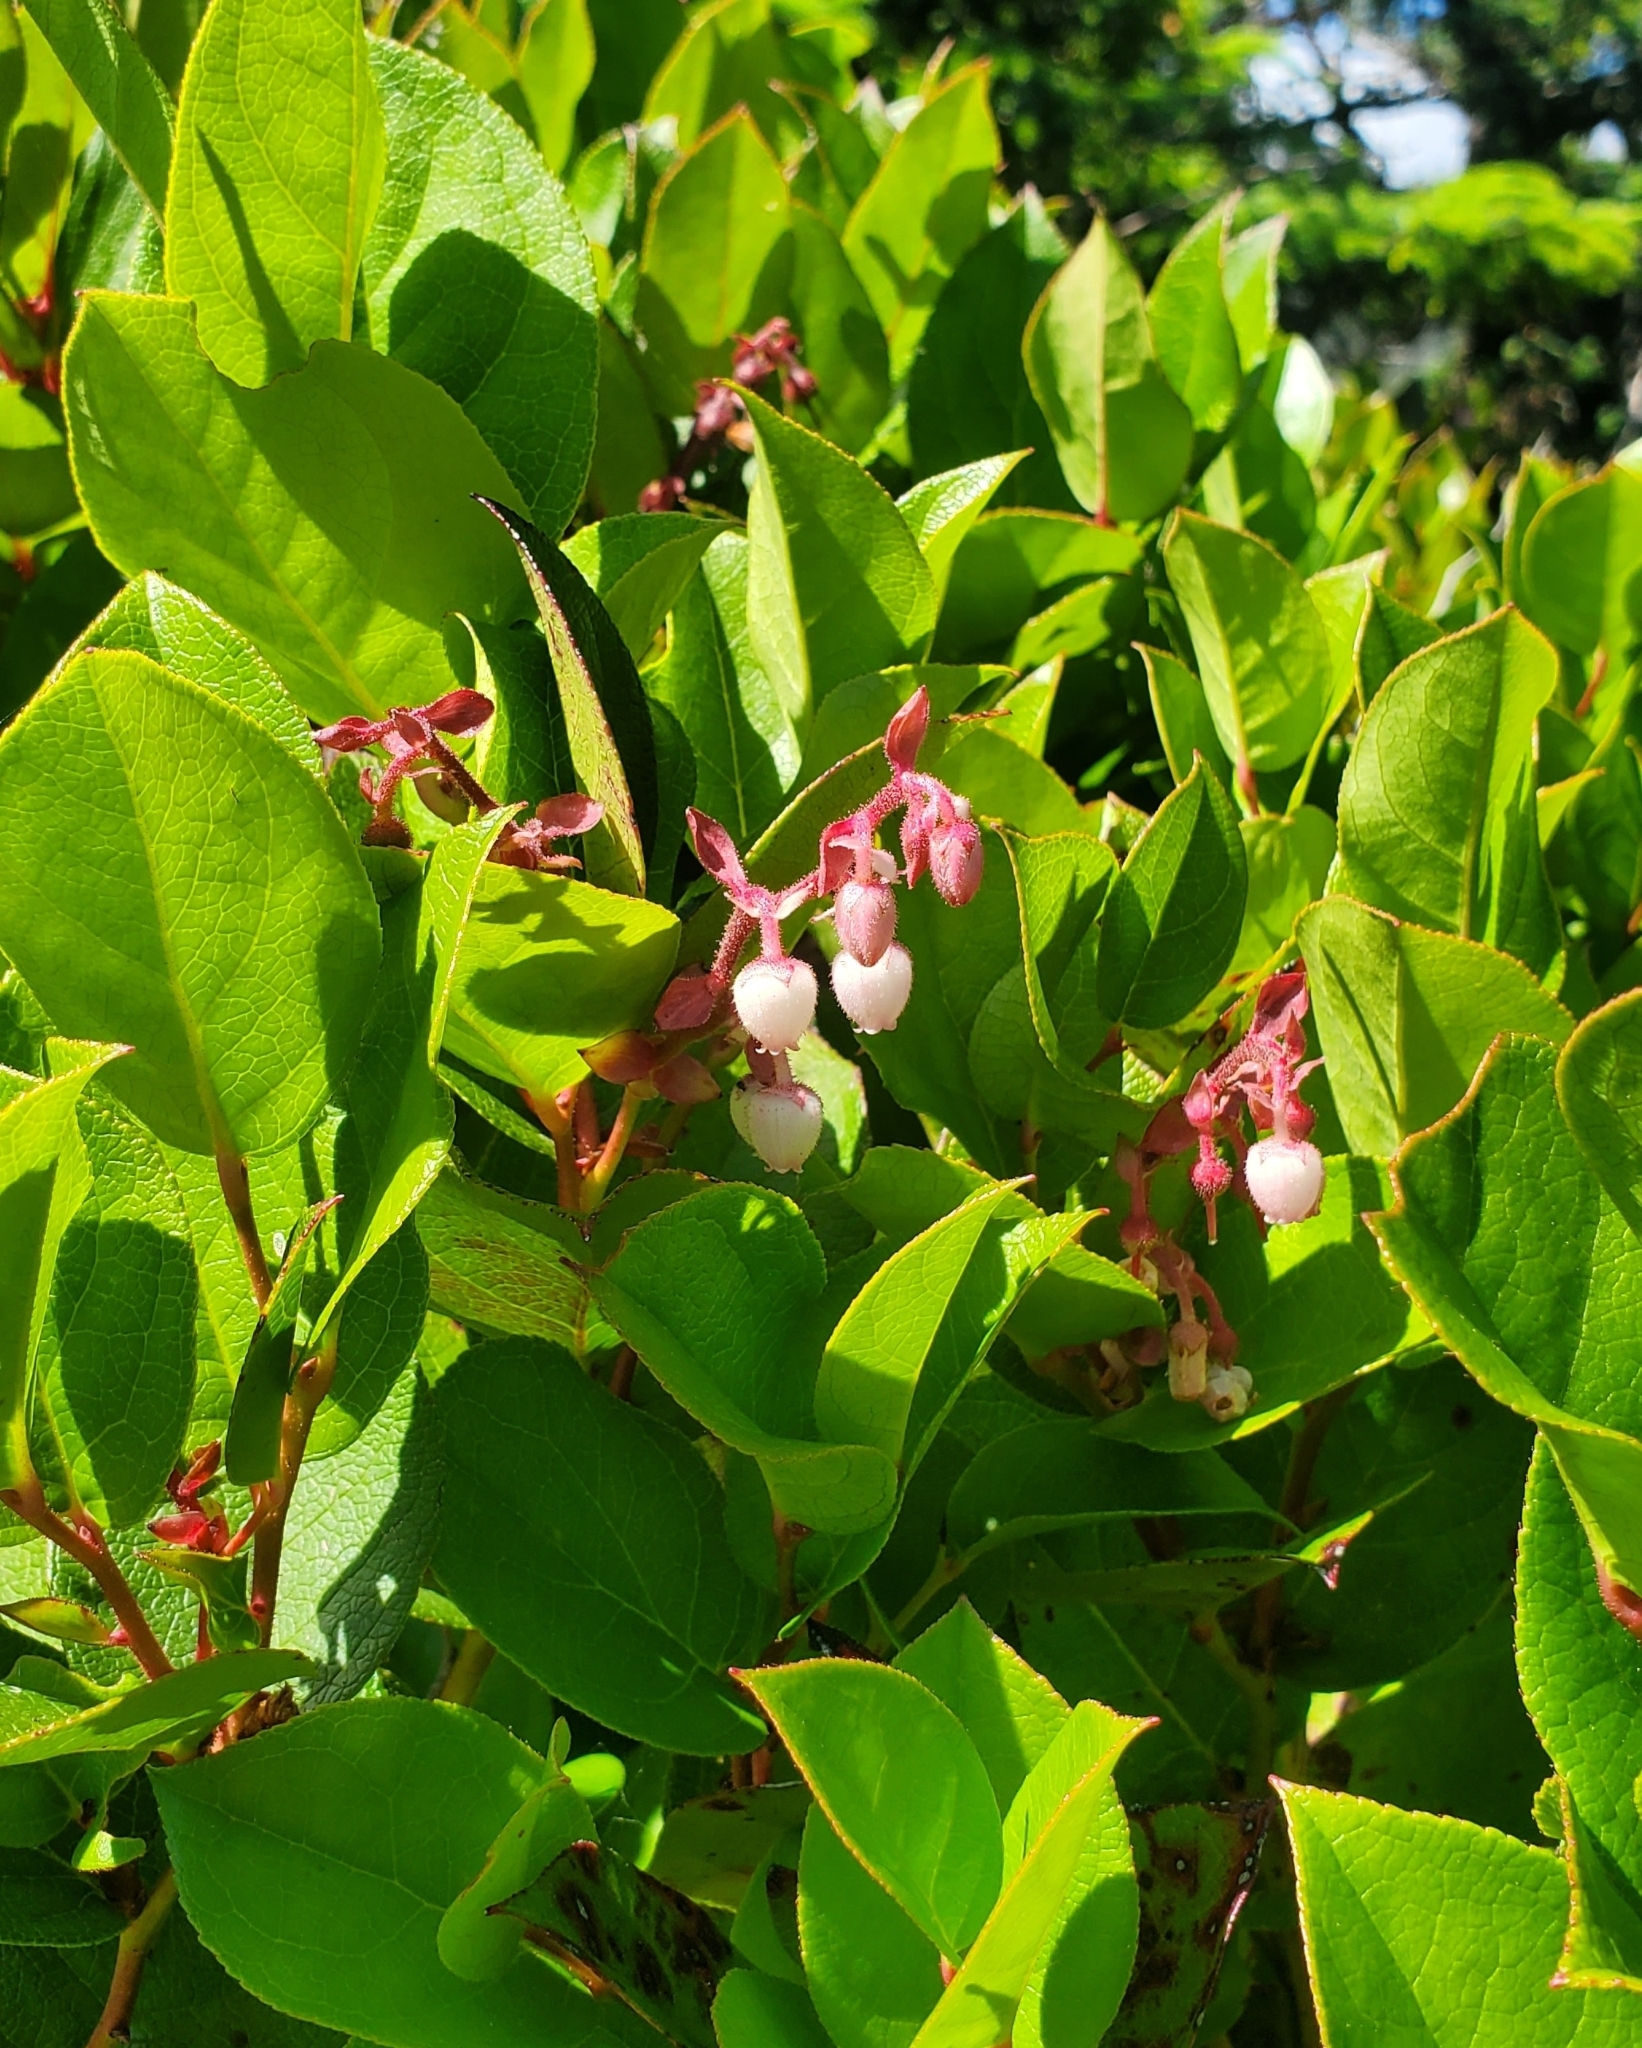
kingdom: Plantae
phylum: Tracheophyta
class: Magnoliopsida
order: Ericales
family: Ericaceae
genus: Gaultheria
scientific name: Gaultheria shallon
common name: Shallon
